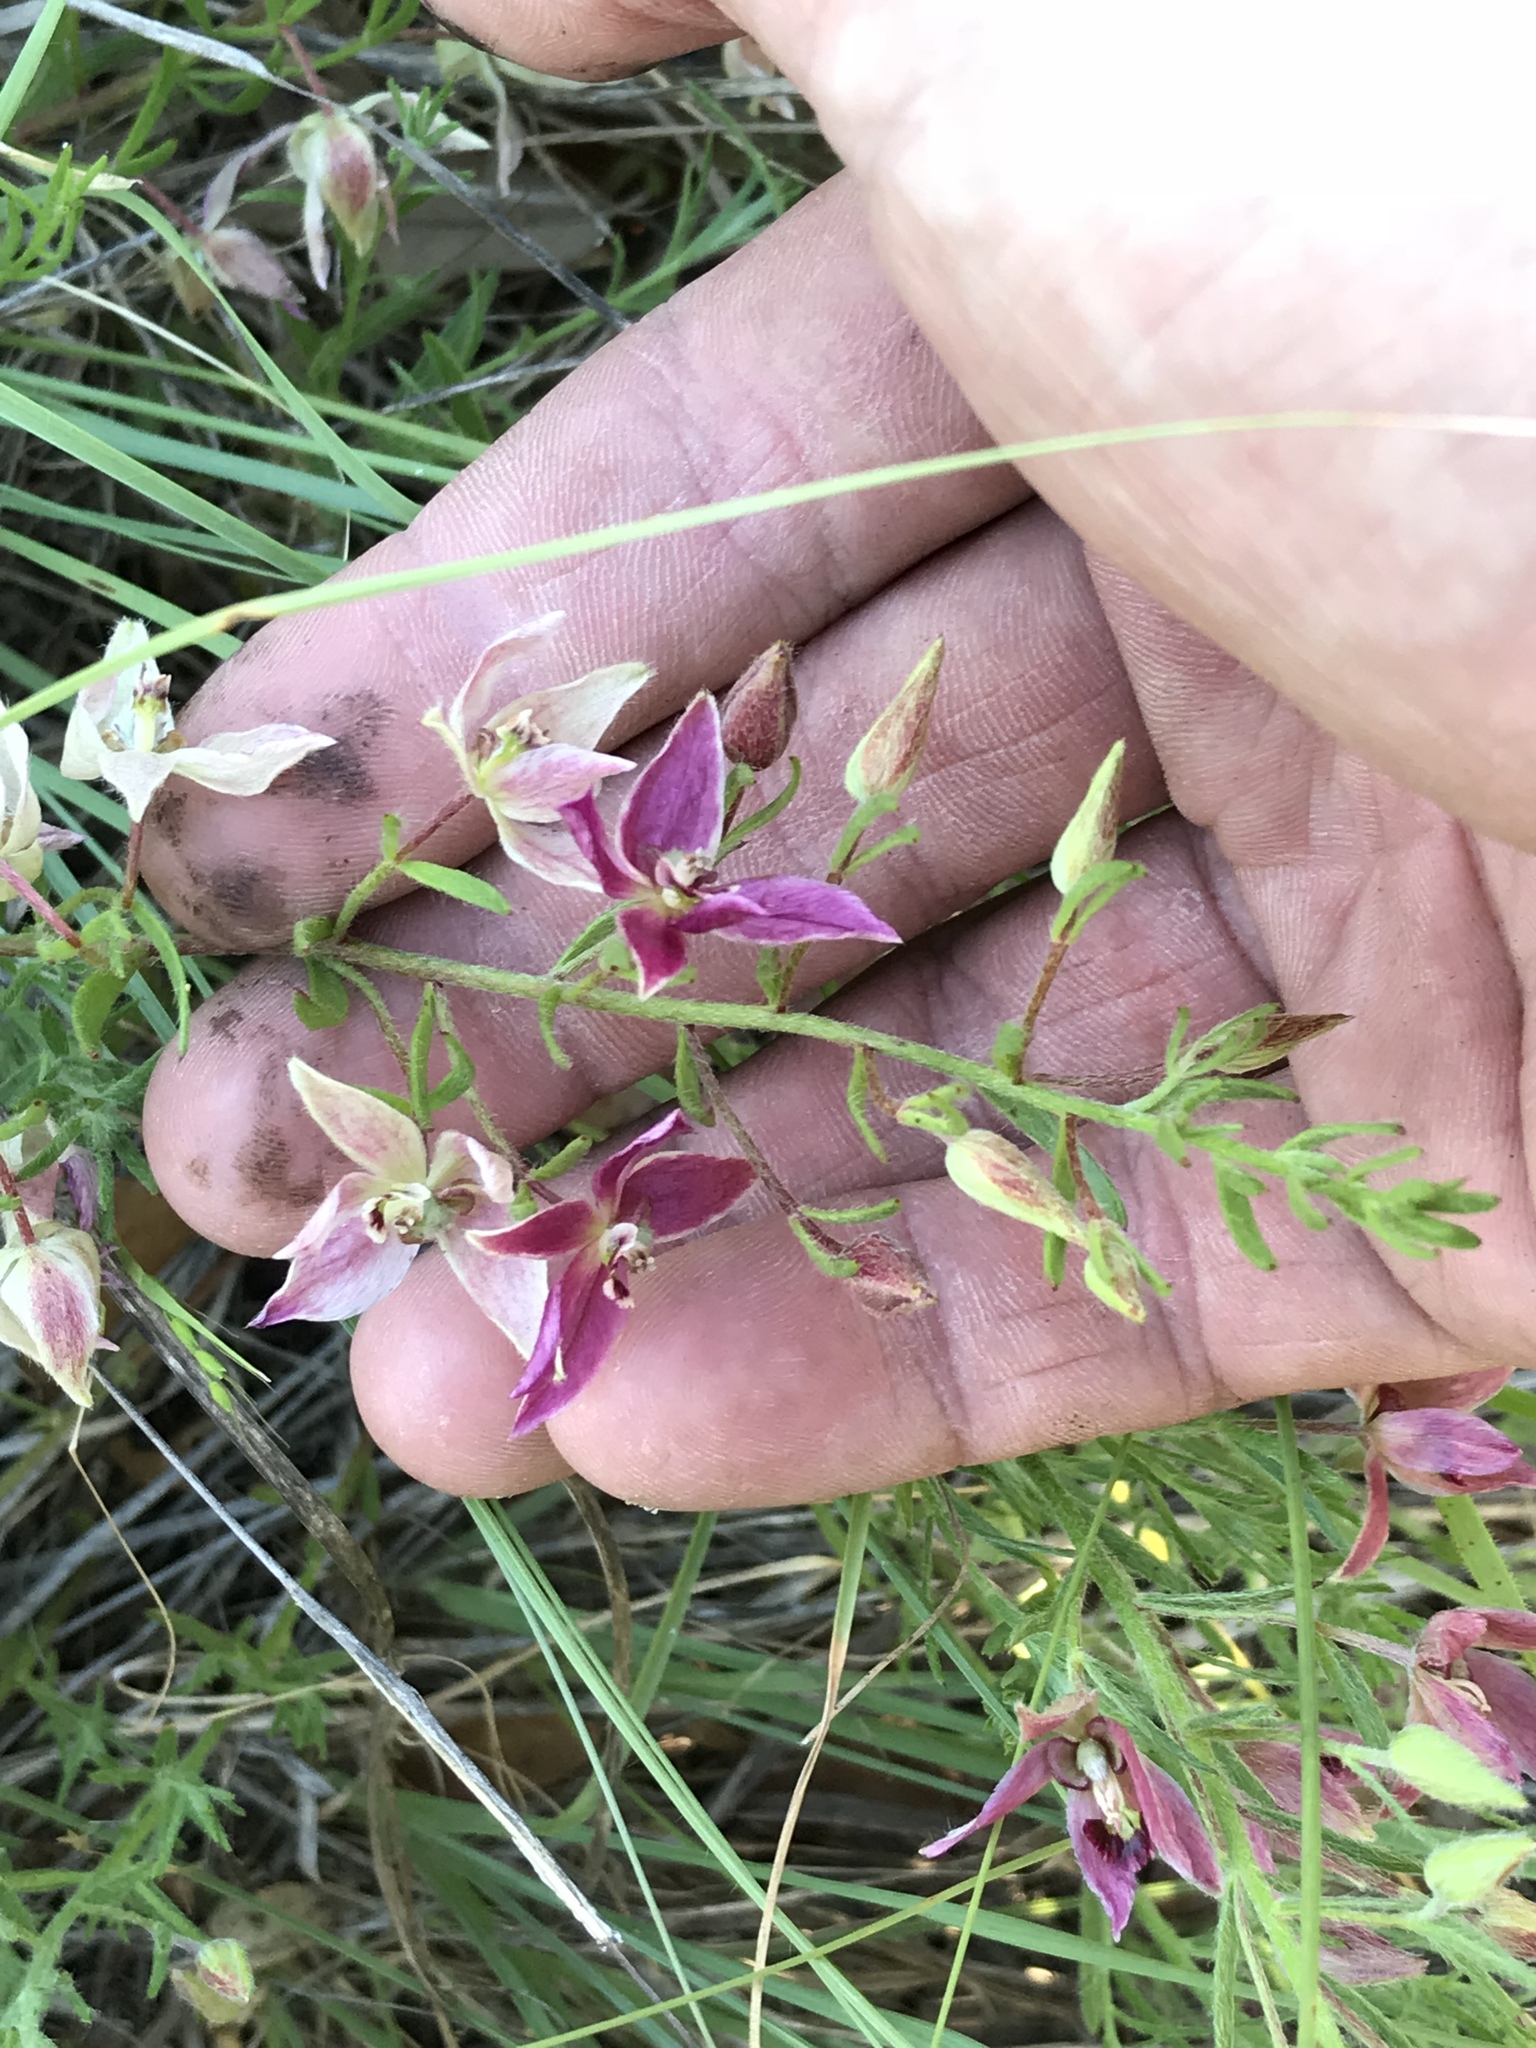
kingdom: Plantae
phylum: Tracheophyta
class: Magnoliopsida
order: Zygophyllales
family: Krameriaceae
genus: Krameria
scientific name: Krameria lanceolata
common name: Ratany
